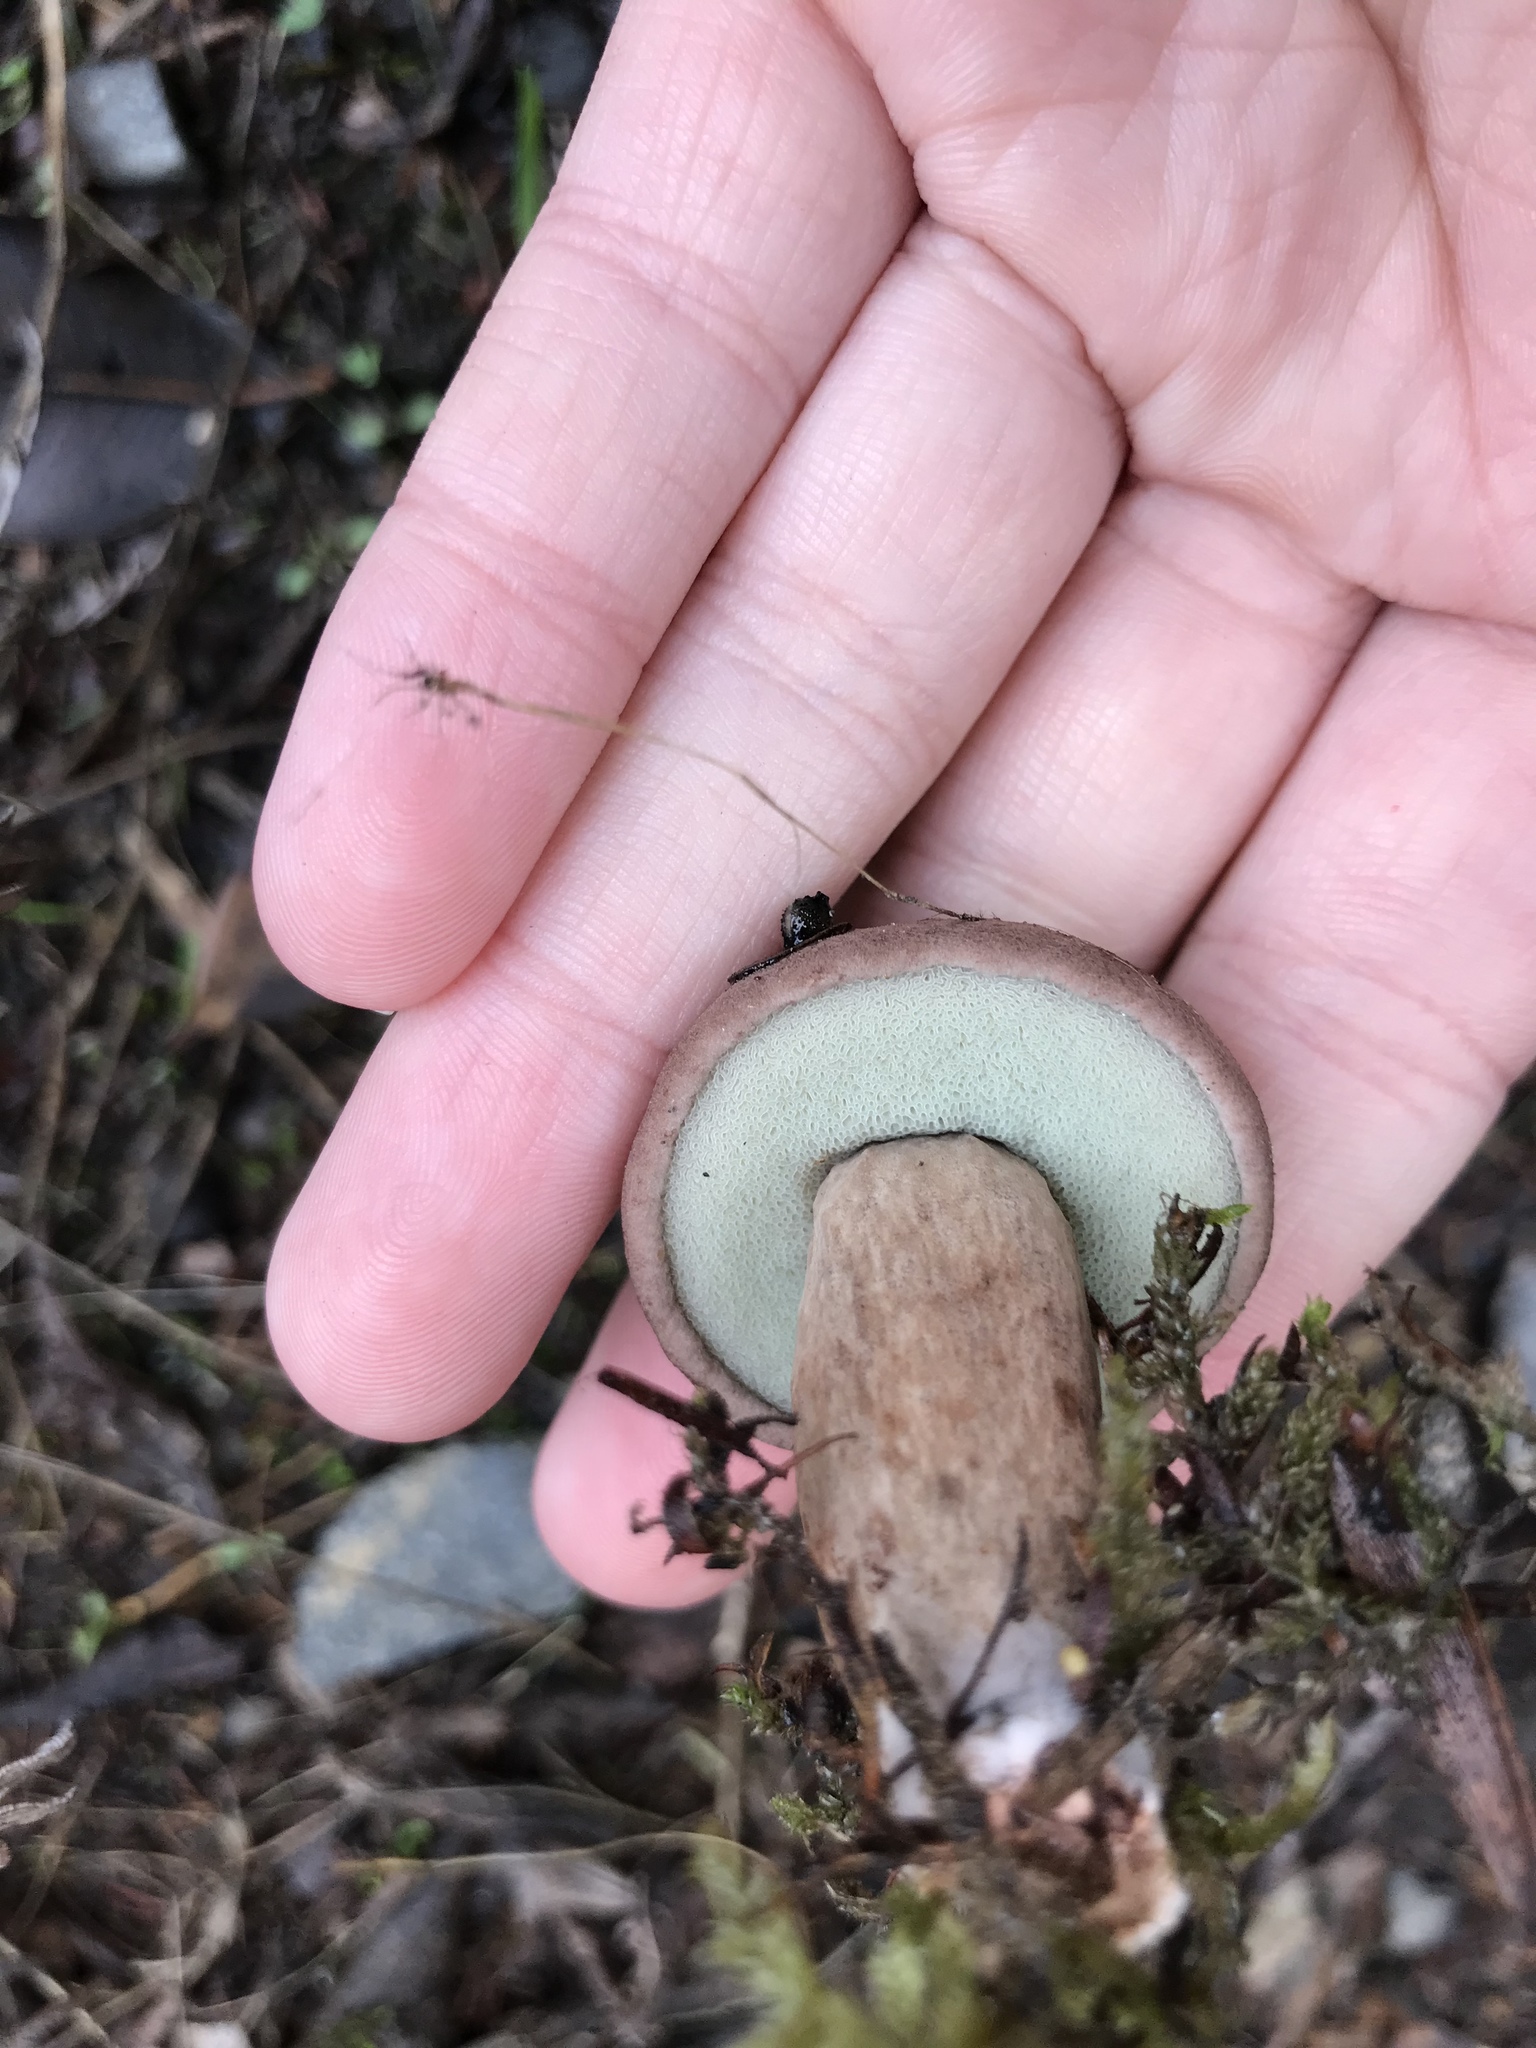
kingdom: Fungi
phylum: Basidiomycota
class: Agaricomycetes
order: Boletales
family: Boletaceae
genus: Porphyrellus
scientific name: Porphyrellus brunneus
